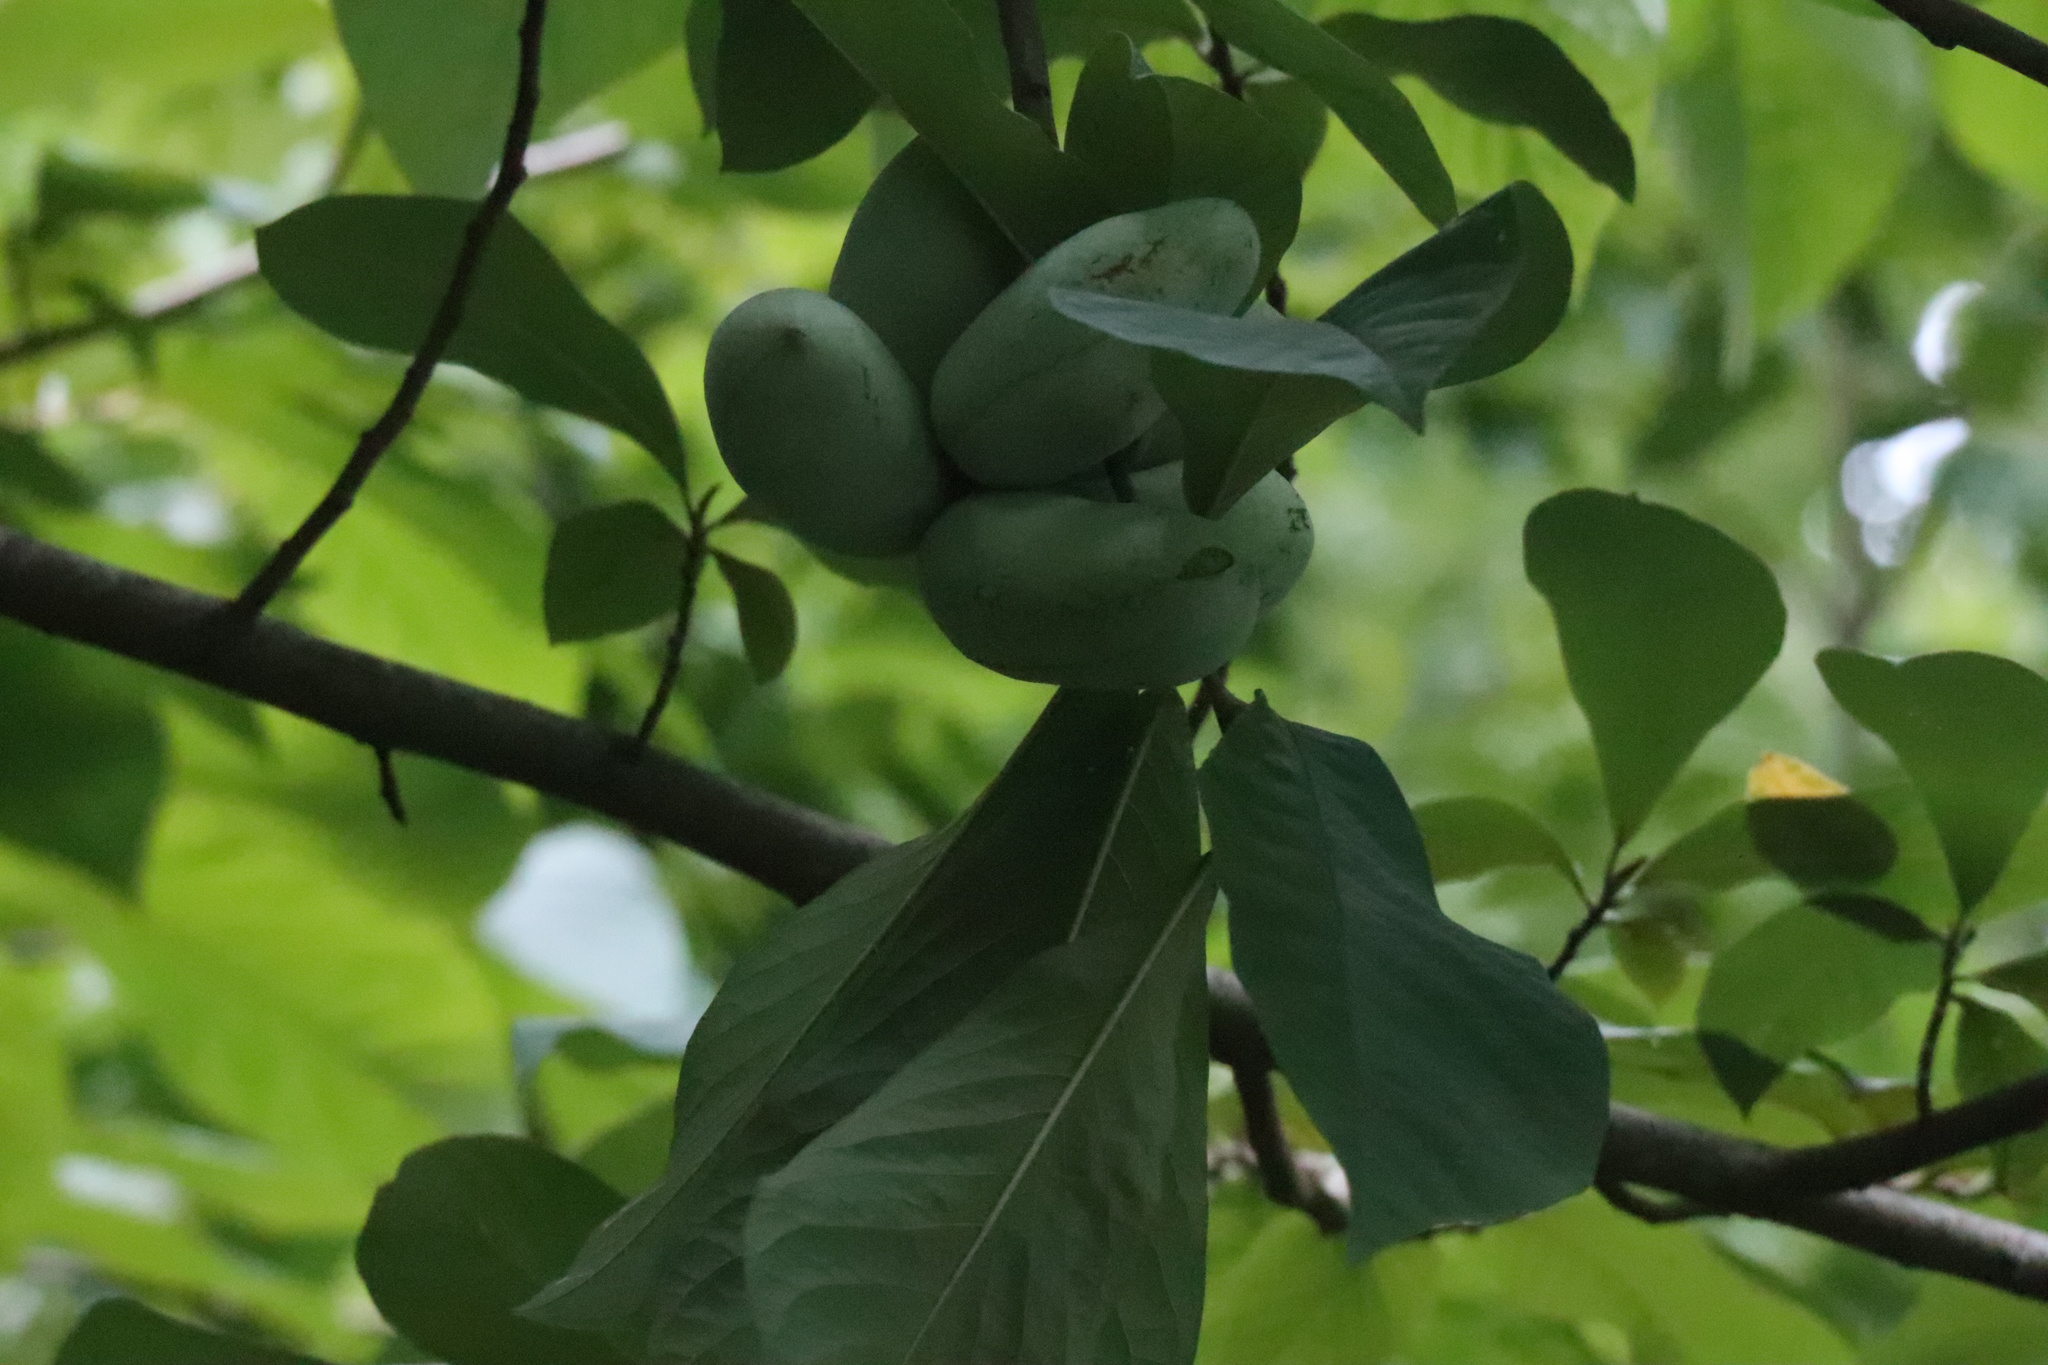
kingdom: Plantae
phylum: Tracheophyta
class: Magnoliopsida
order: Magnoliales
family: Annonaceae
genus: Asimina
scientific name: Asimina triloba
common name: Dog-banana
